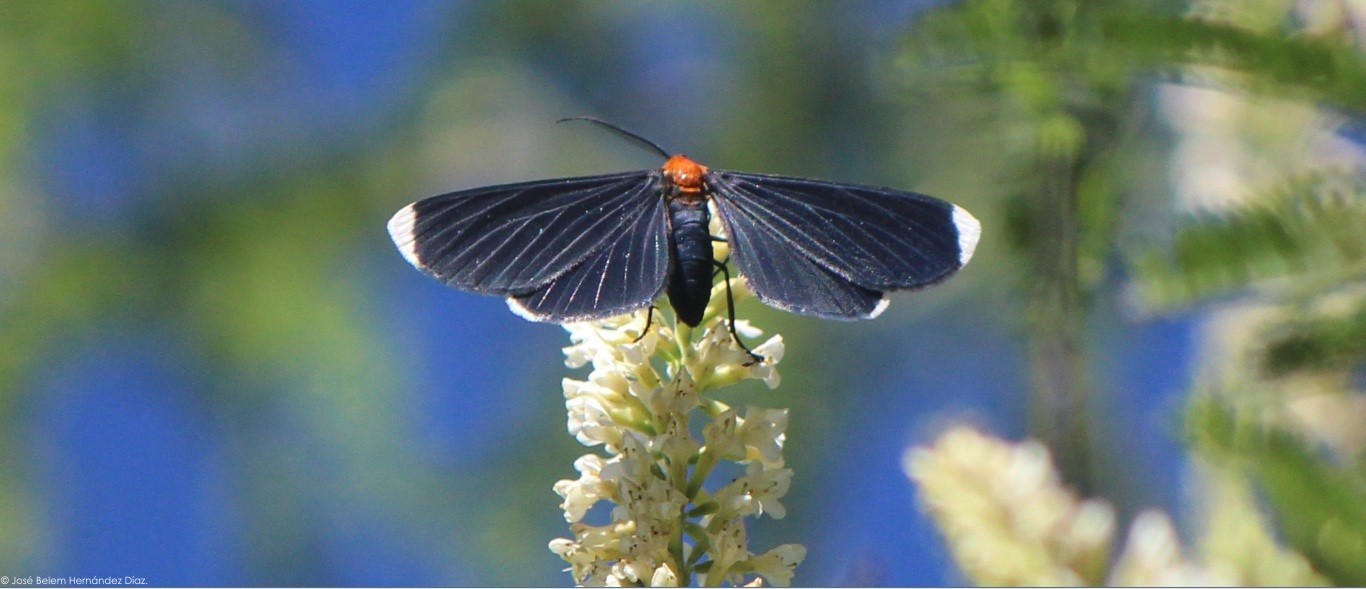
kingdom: Animalia
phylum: Arthropoda
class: Insecta
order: Lepidoptera
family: Geometridae
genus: Melanchroia
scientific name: Melanchroia chephise
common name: White-tipped black
